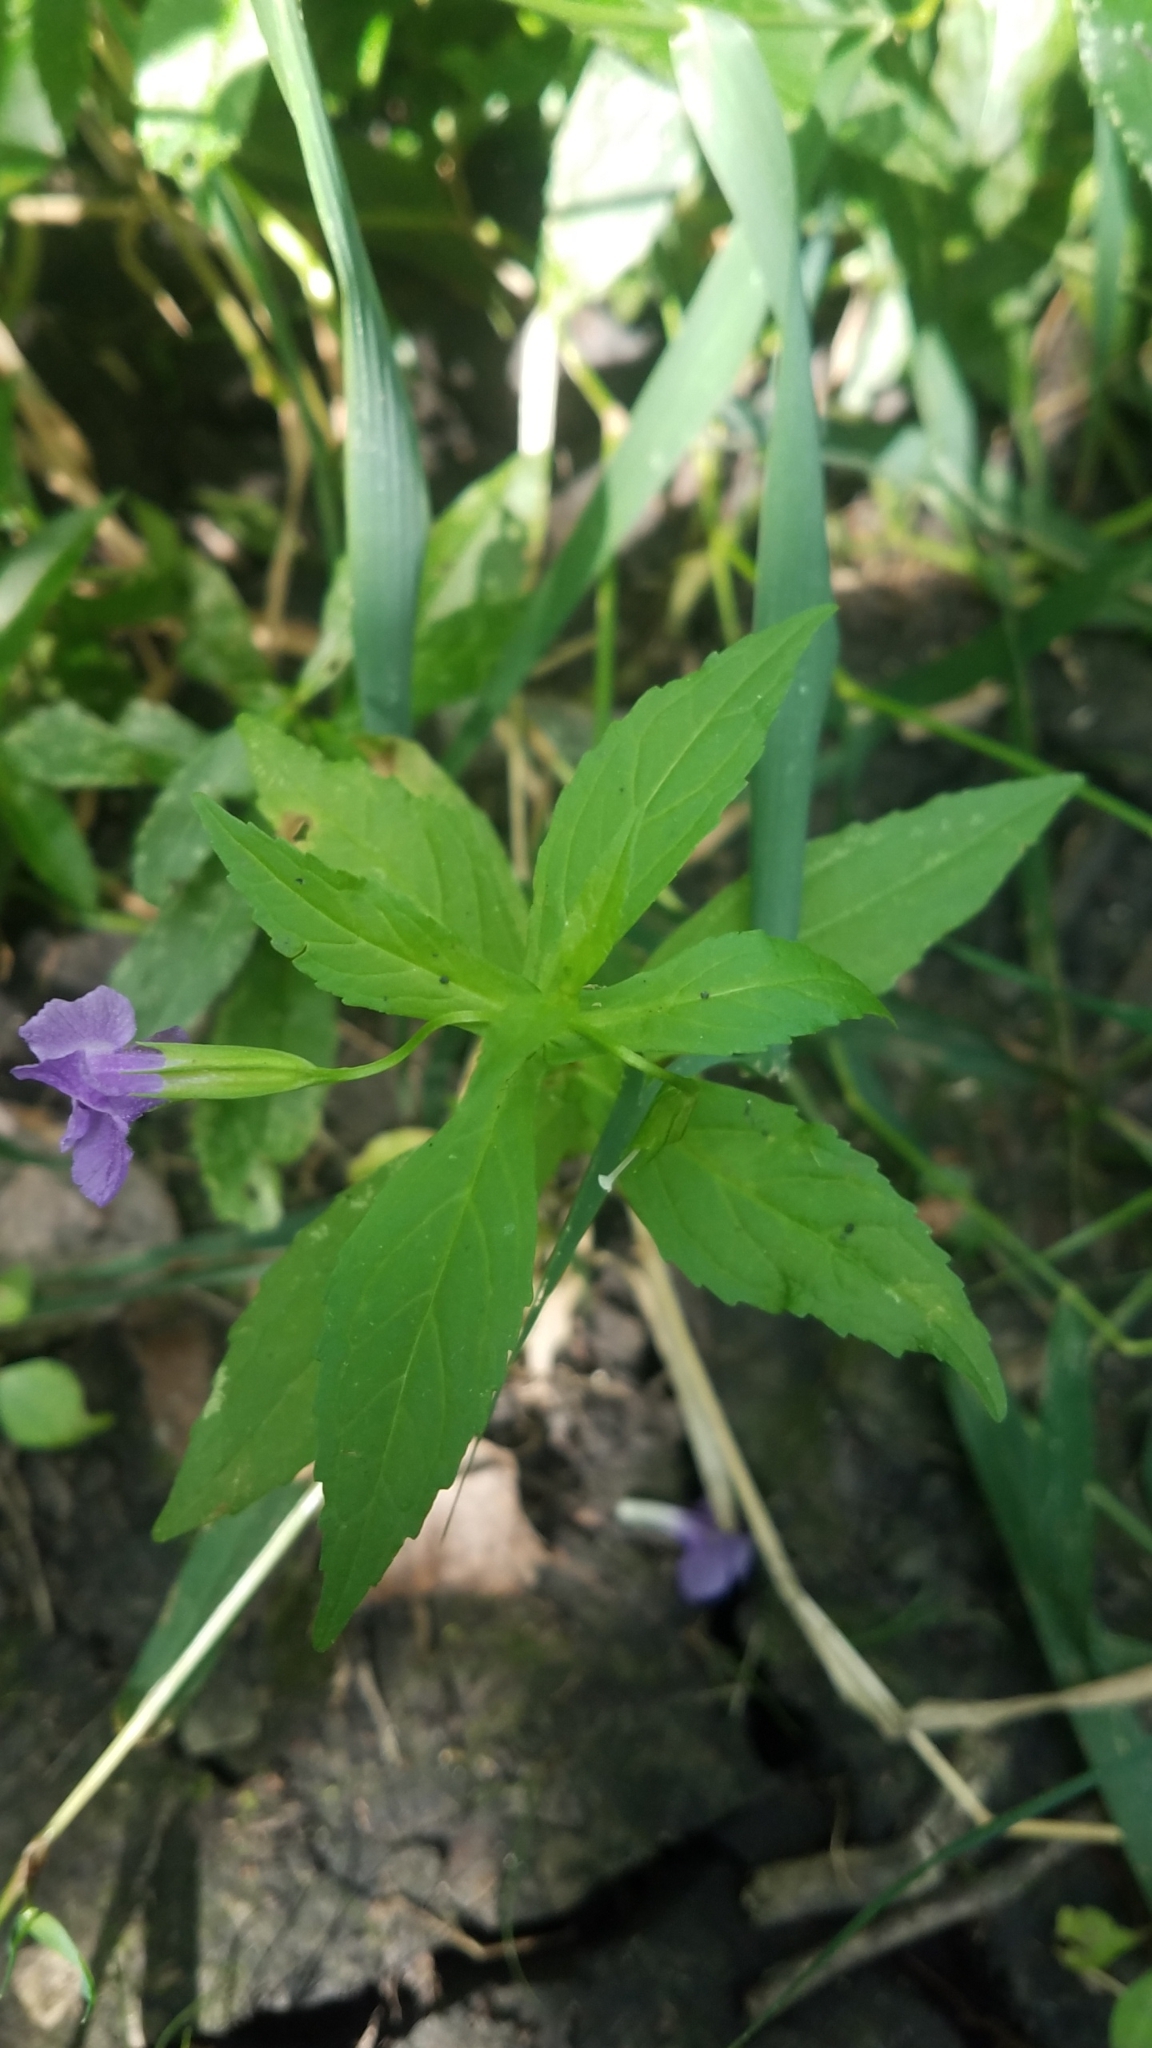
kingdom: Plantae
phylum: Tracheophyta
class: Magnoliopsida
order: Lamiales
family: Phrymaceae
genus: Mimulus
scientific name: Mimulus ringens
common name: Allegheny monkeyflower
